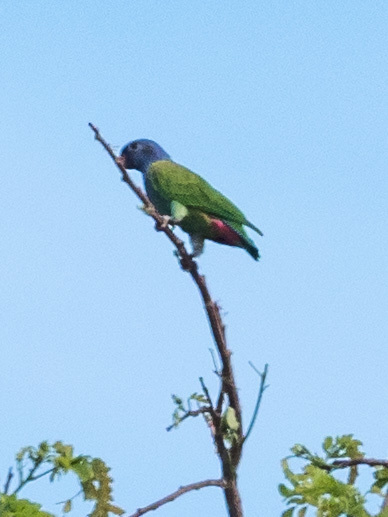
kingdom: Animalia
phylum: Chordata
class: Aves
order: Psittaciformes
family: Psittacidae
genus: Pionus
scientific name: Pionus menstruus
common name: Blue-headed parrot
